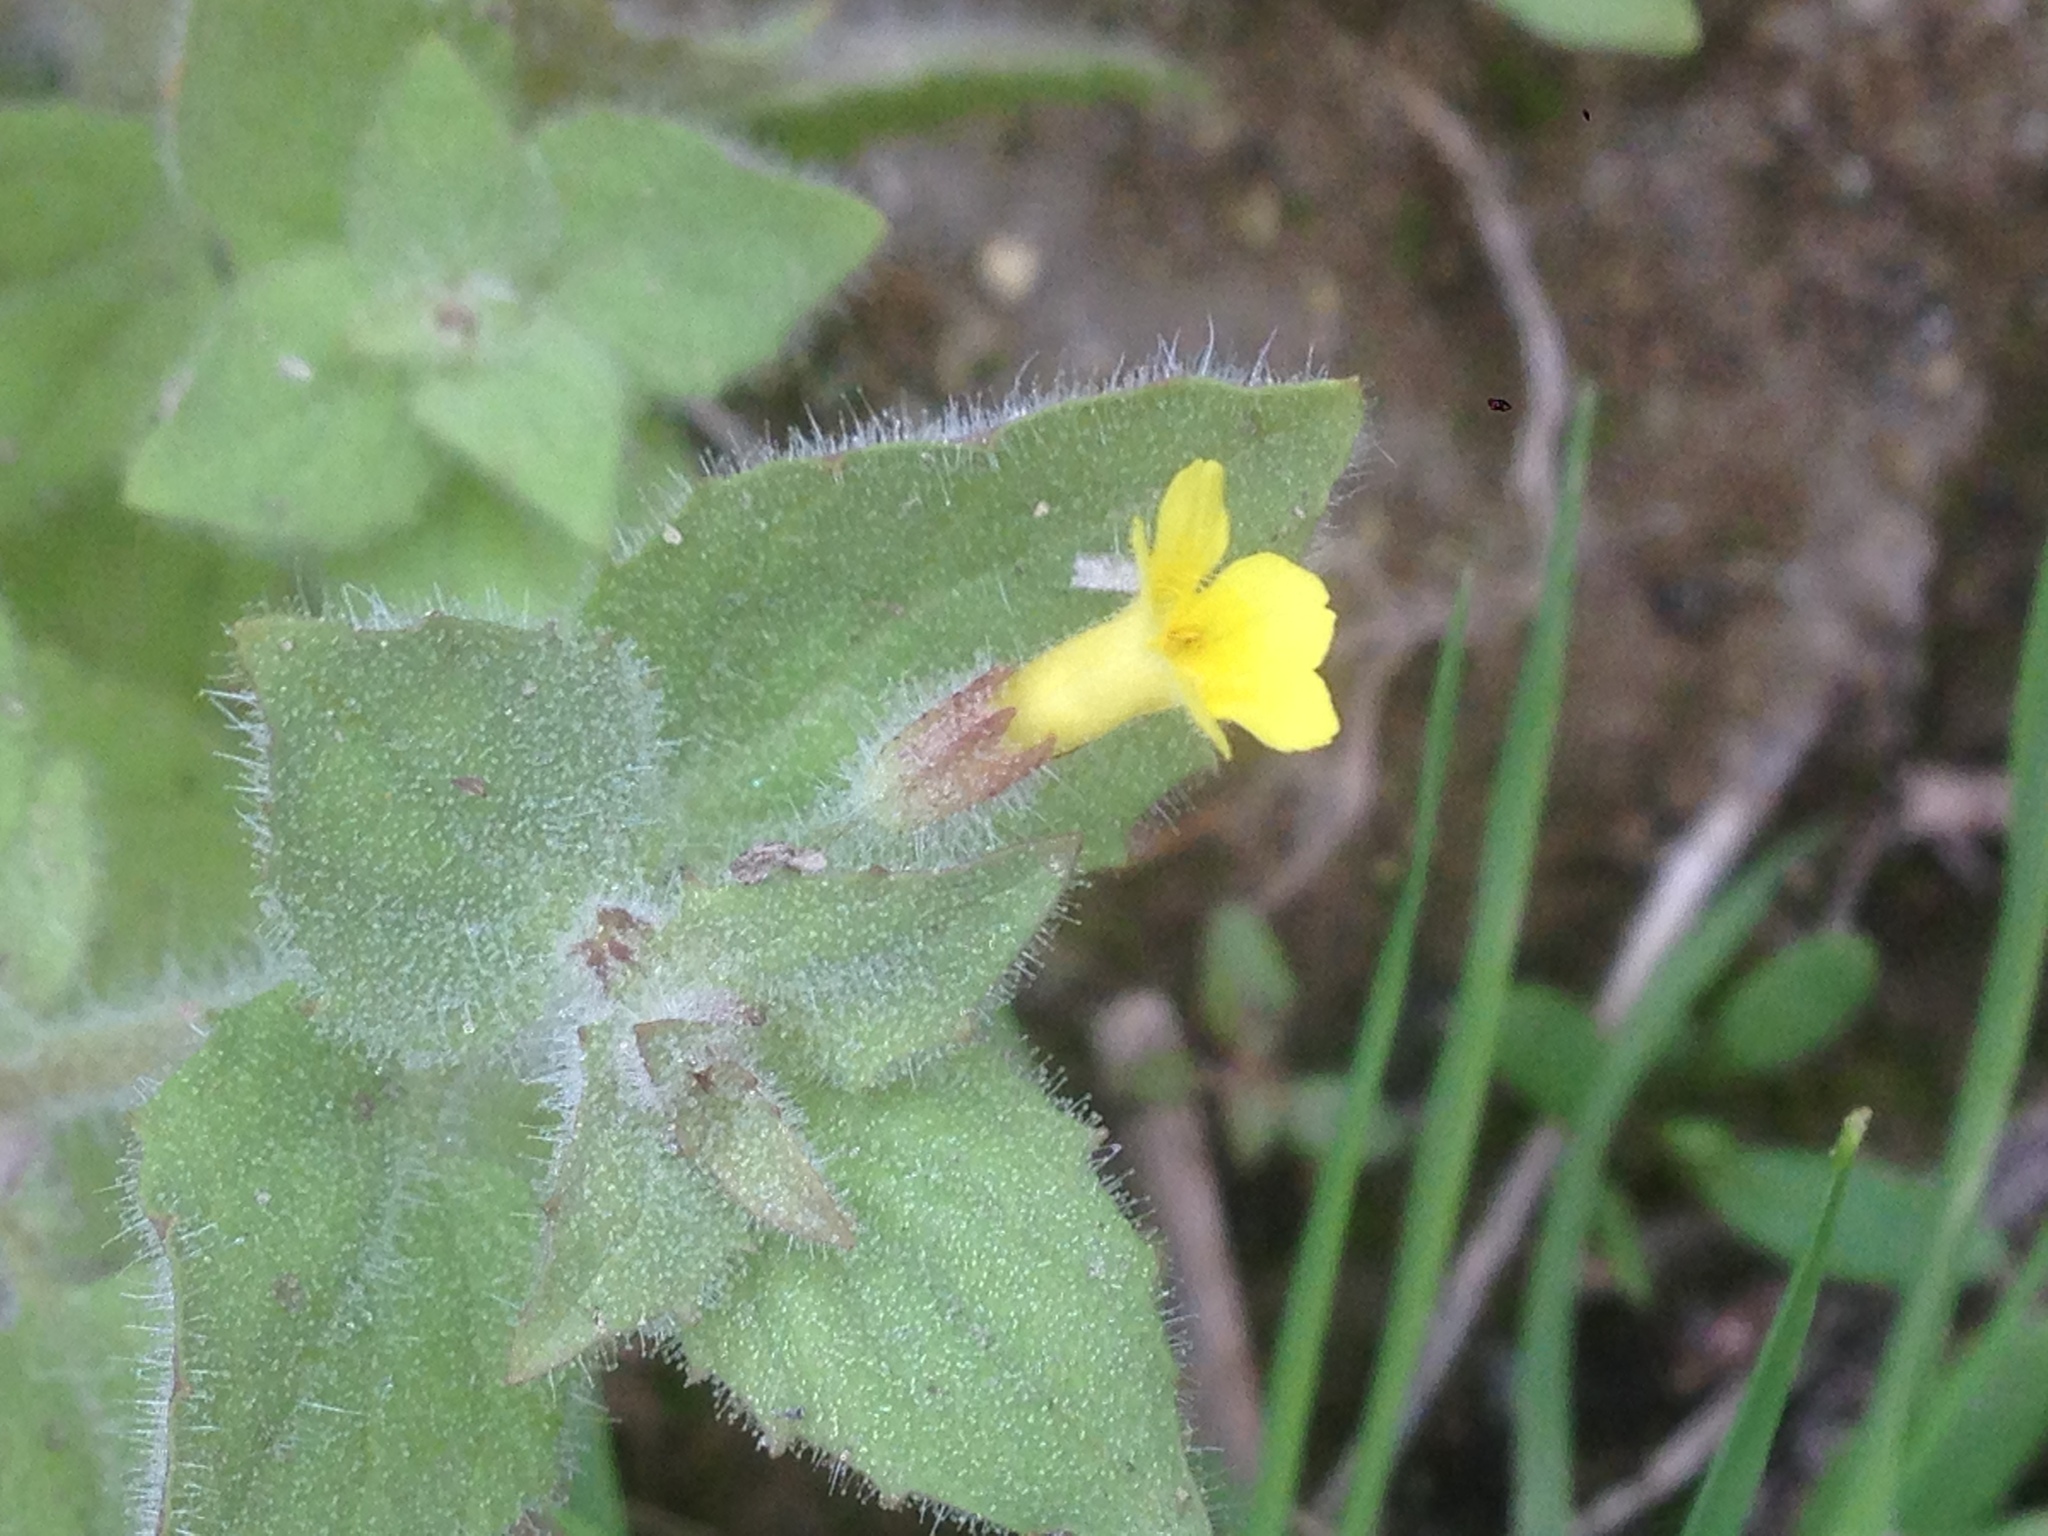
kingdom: Plantae
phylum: Tracheophyta
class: Magnoliopsida
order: Lamiales
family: Phrymaceae
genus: Erythranthe
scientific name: Erythranthe floribunda
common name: Floriferous monkeyflower
